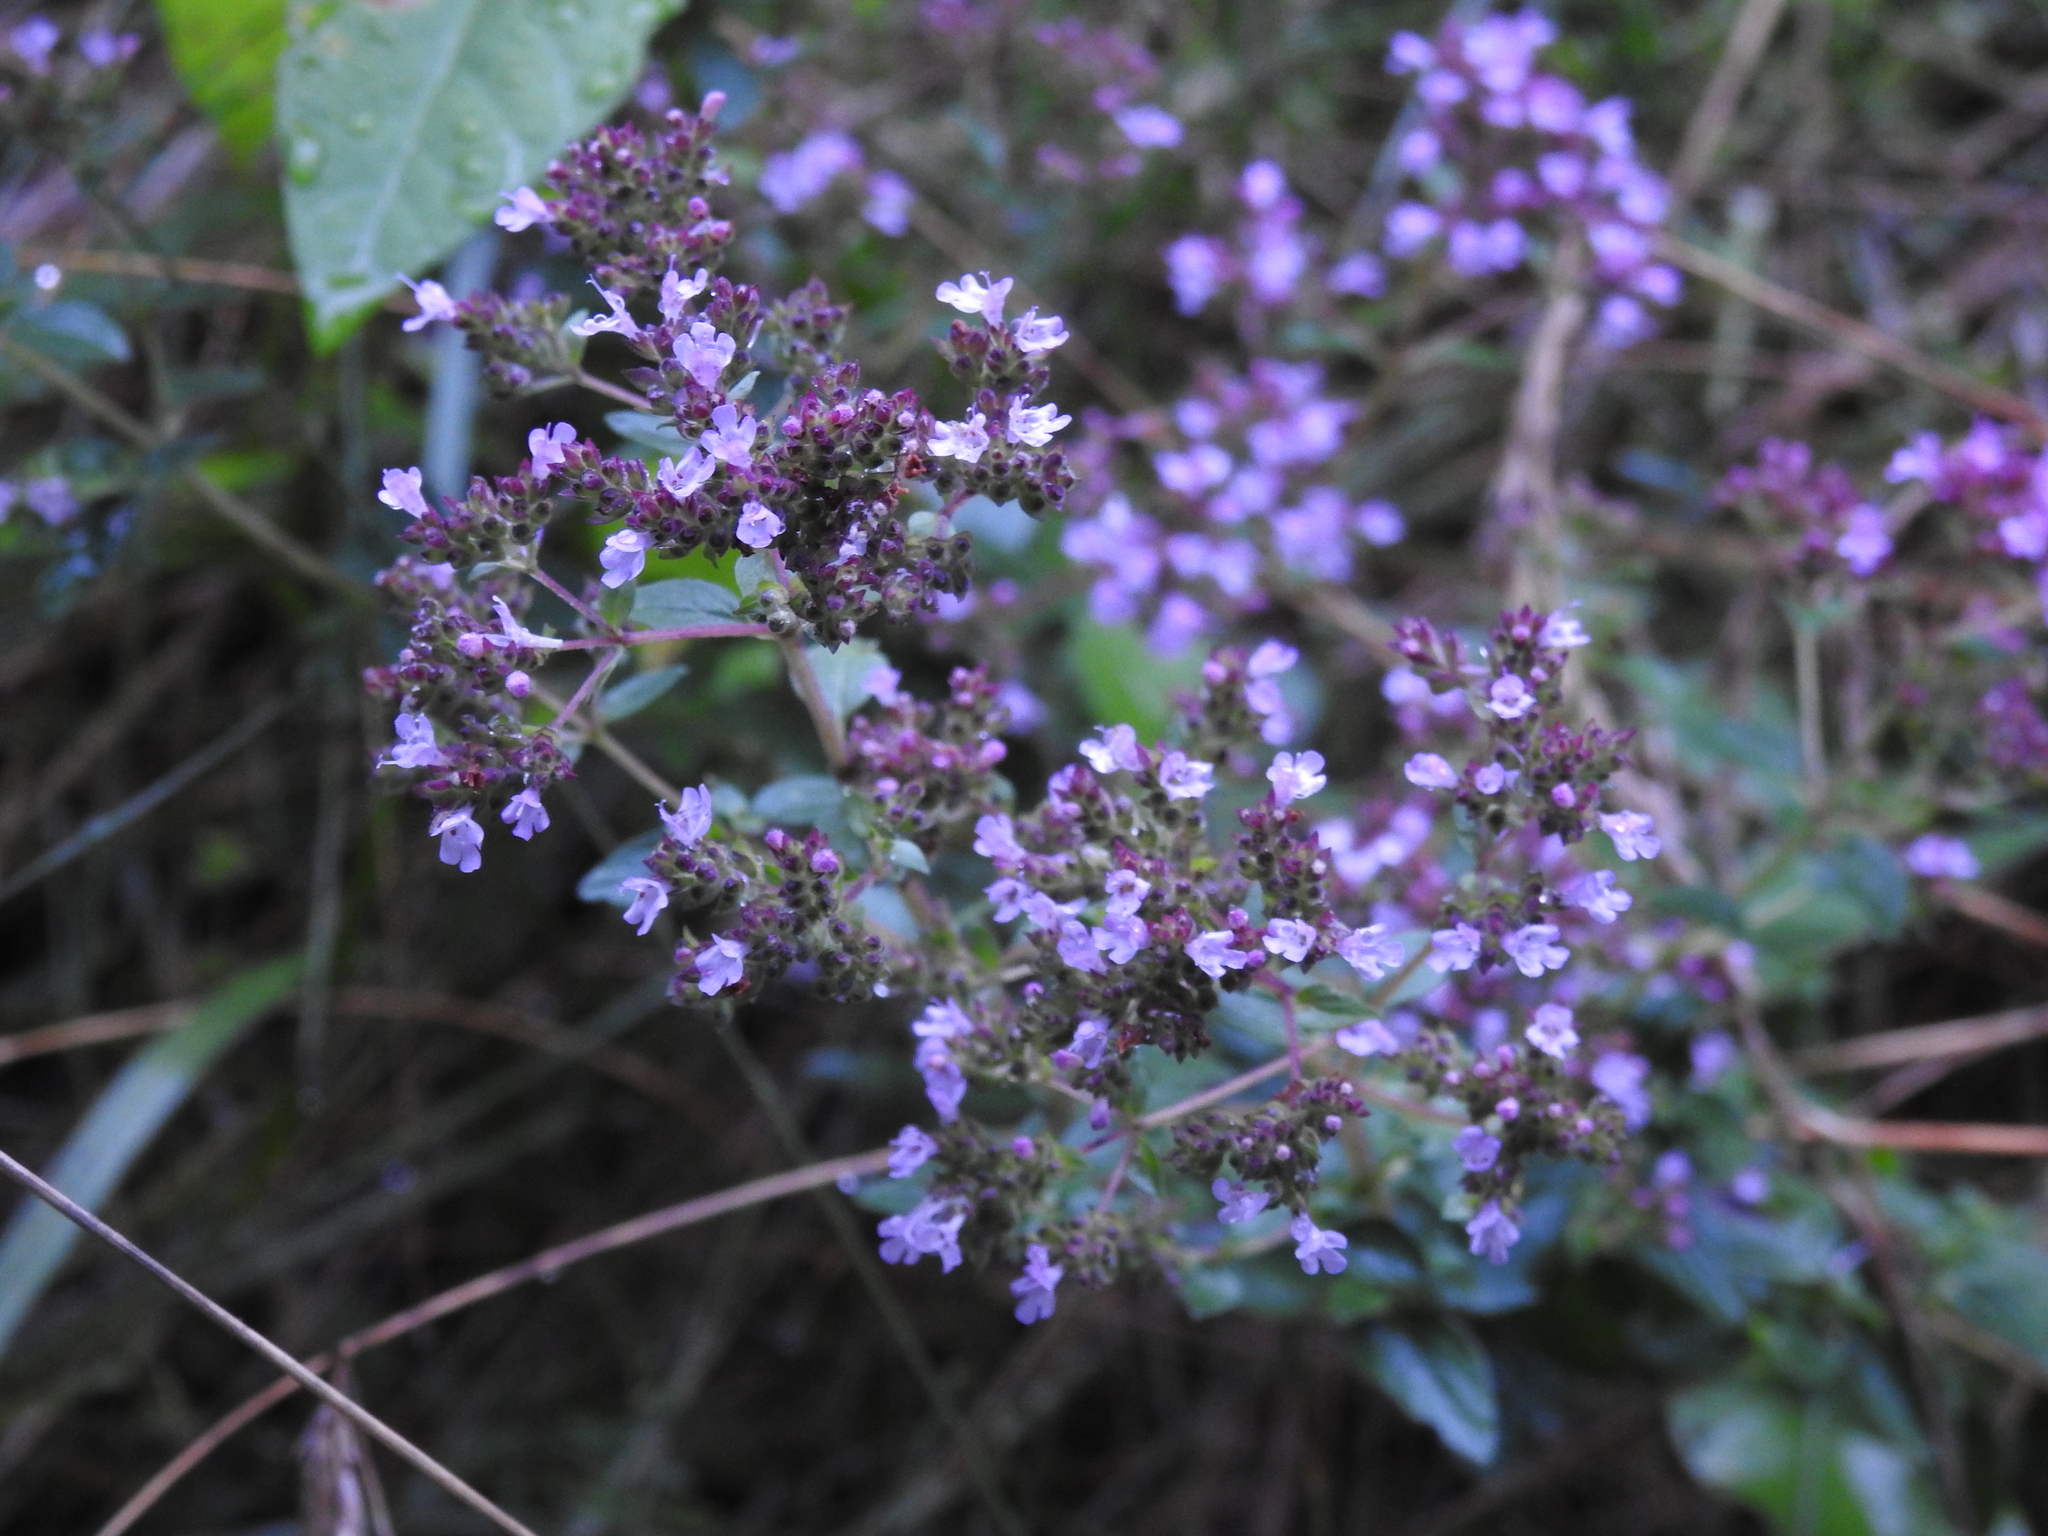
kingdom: Plantae
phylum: Tracheophyta
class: Magnoliopsida
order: Lamiales
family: Lamiaceae
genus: Origanum
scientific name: Origanum vulgare
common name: Wild marjoram
